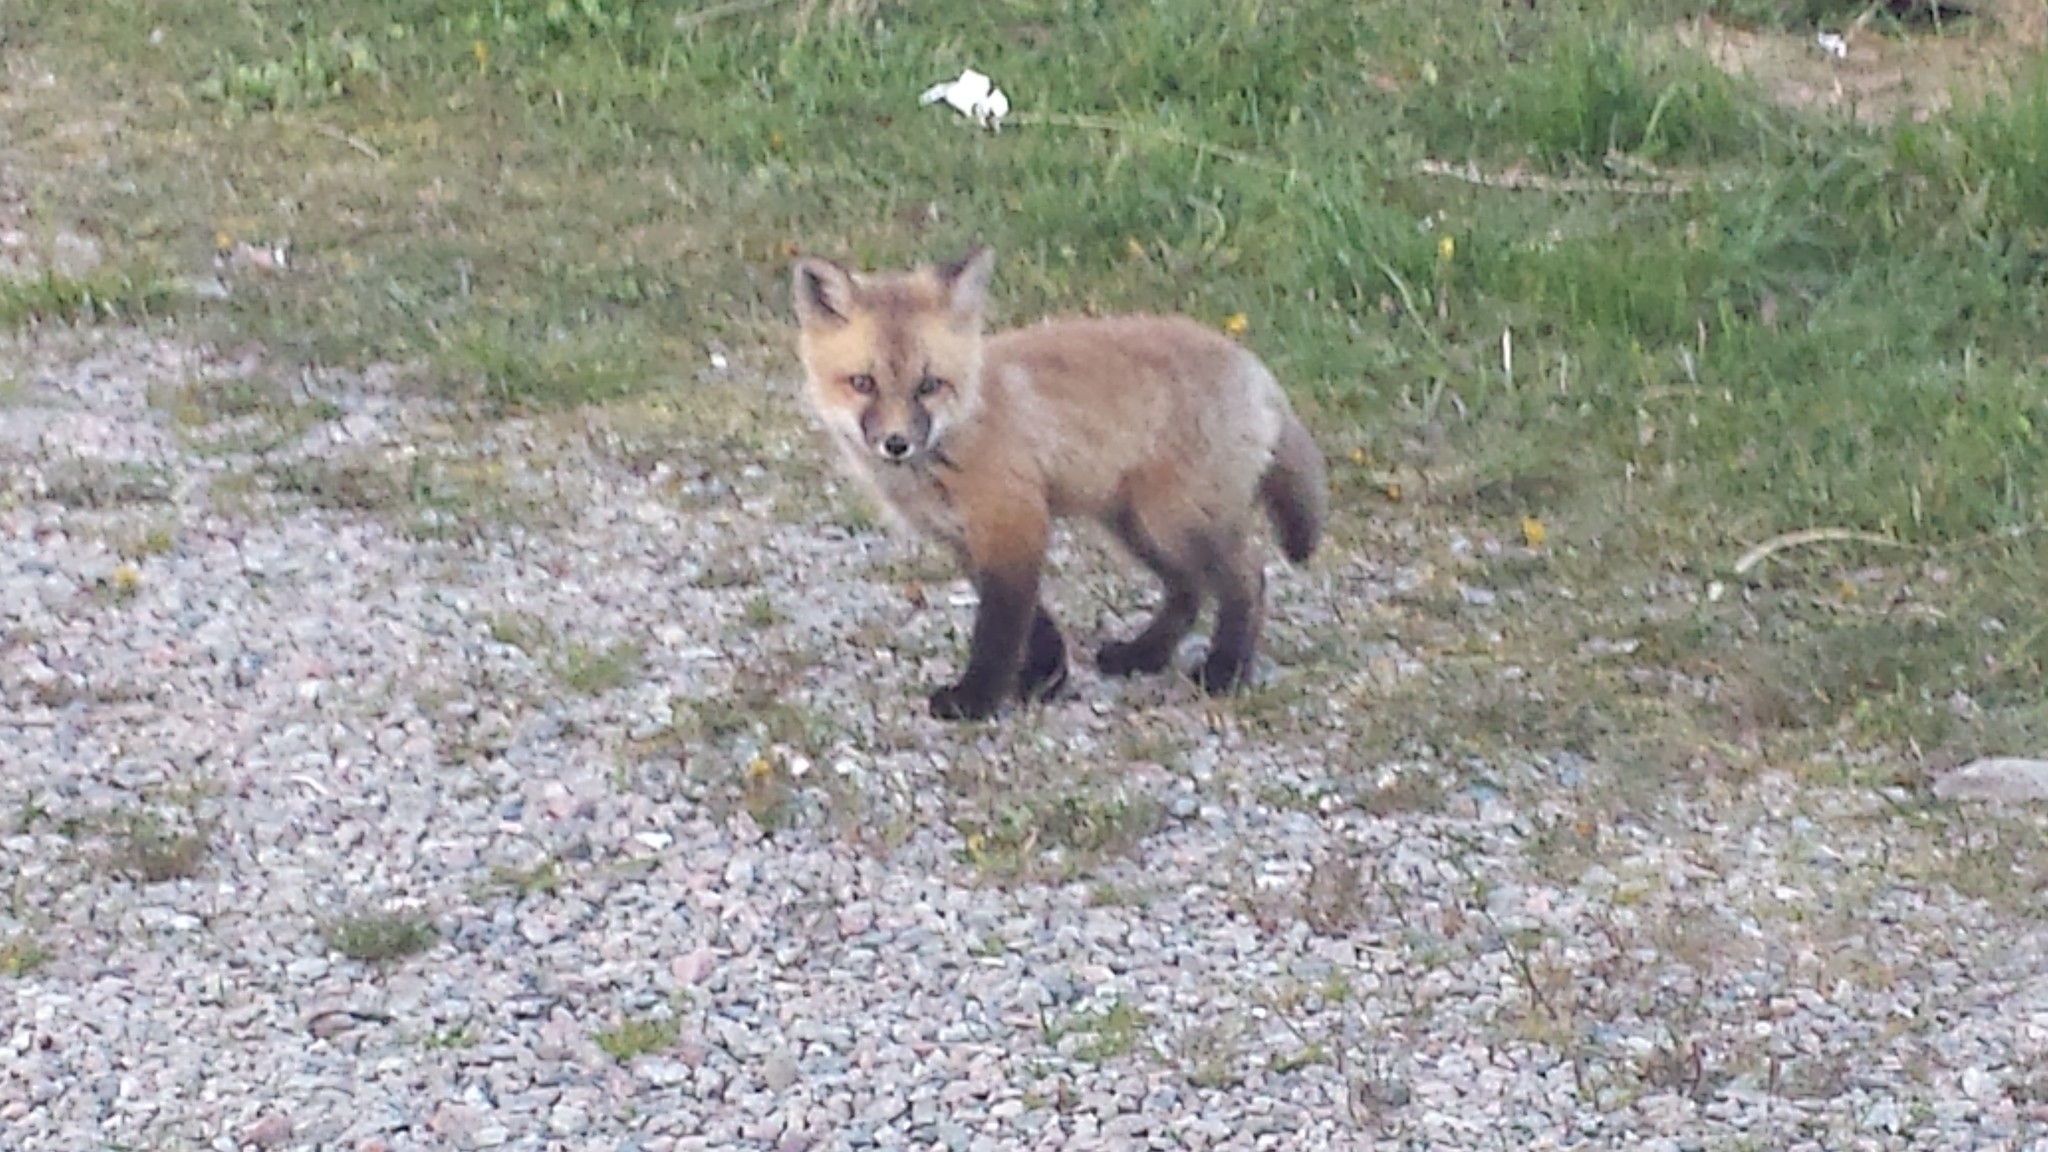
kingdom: Animalia
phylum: Chordata
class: Mammalia
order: Carnivora
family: Canidae
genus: Vulpes
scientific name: Vulpes vulpes
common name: Red fox
